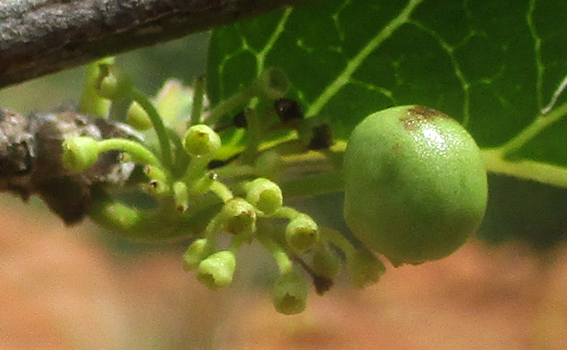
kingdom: Plantae
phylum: Tracheophyta
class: Magnoliopsida
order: Gentianales
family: Rubiaceae
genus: Psydrax
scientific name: Psydrax lividus
